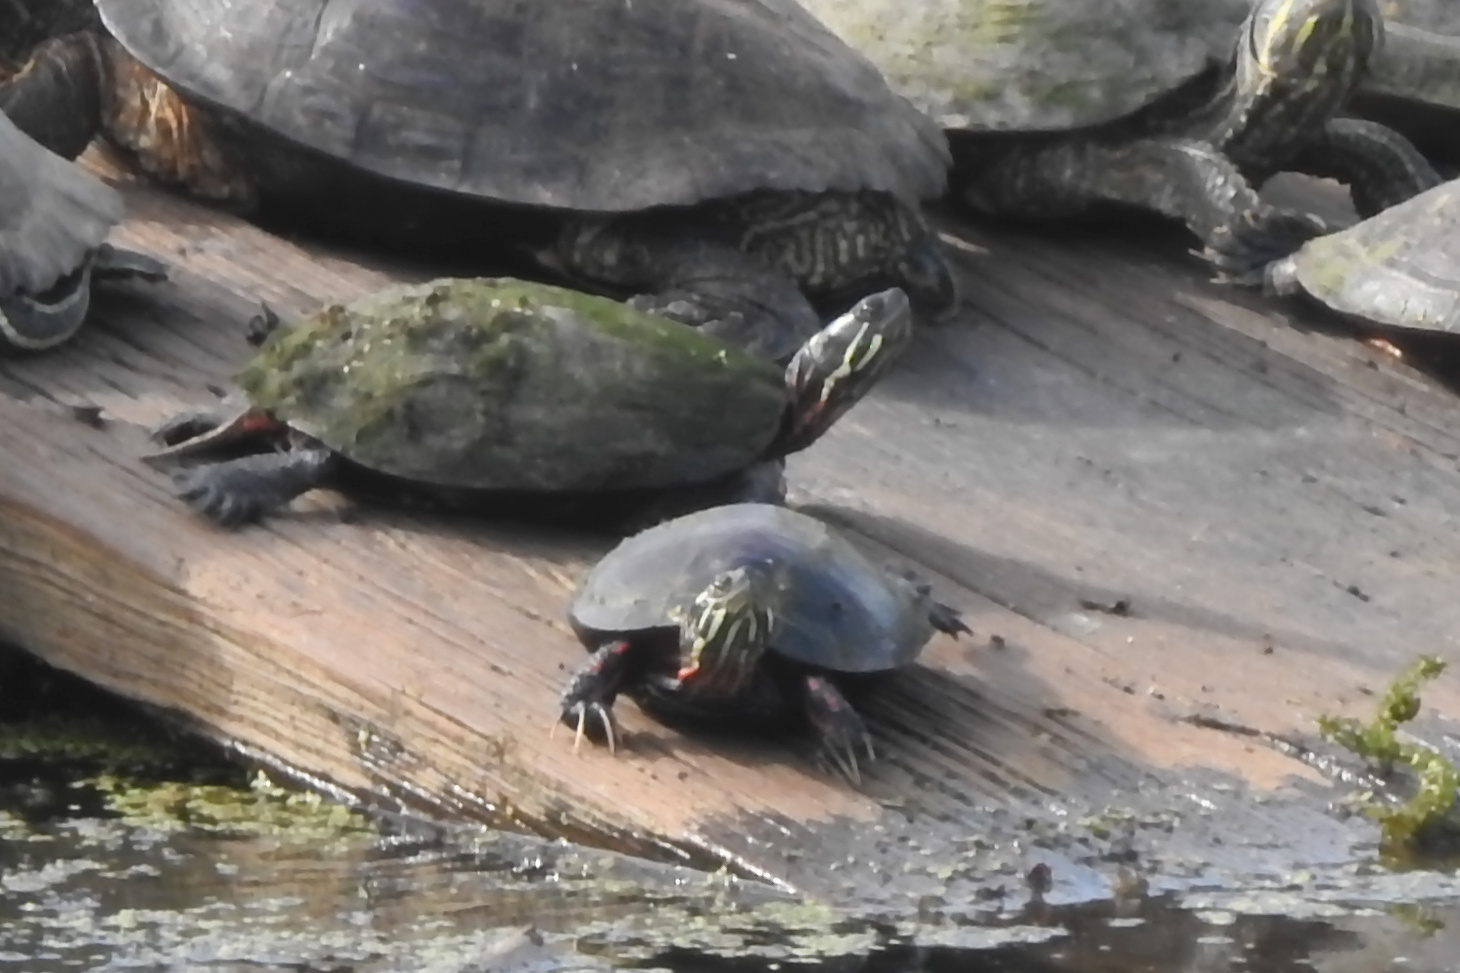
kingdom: Animalia
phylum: Chordata
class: Testudines
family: Emydidae
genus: Chrysemys
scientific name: Chrysemys picta
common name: Painted turtle
